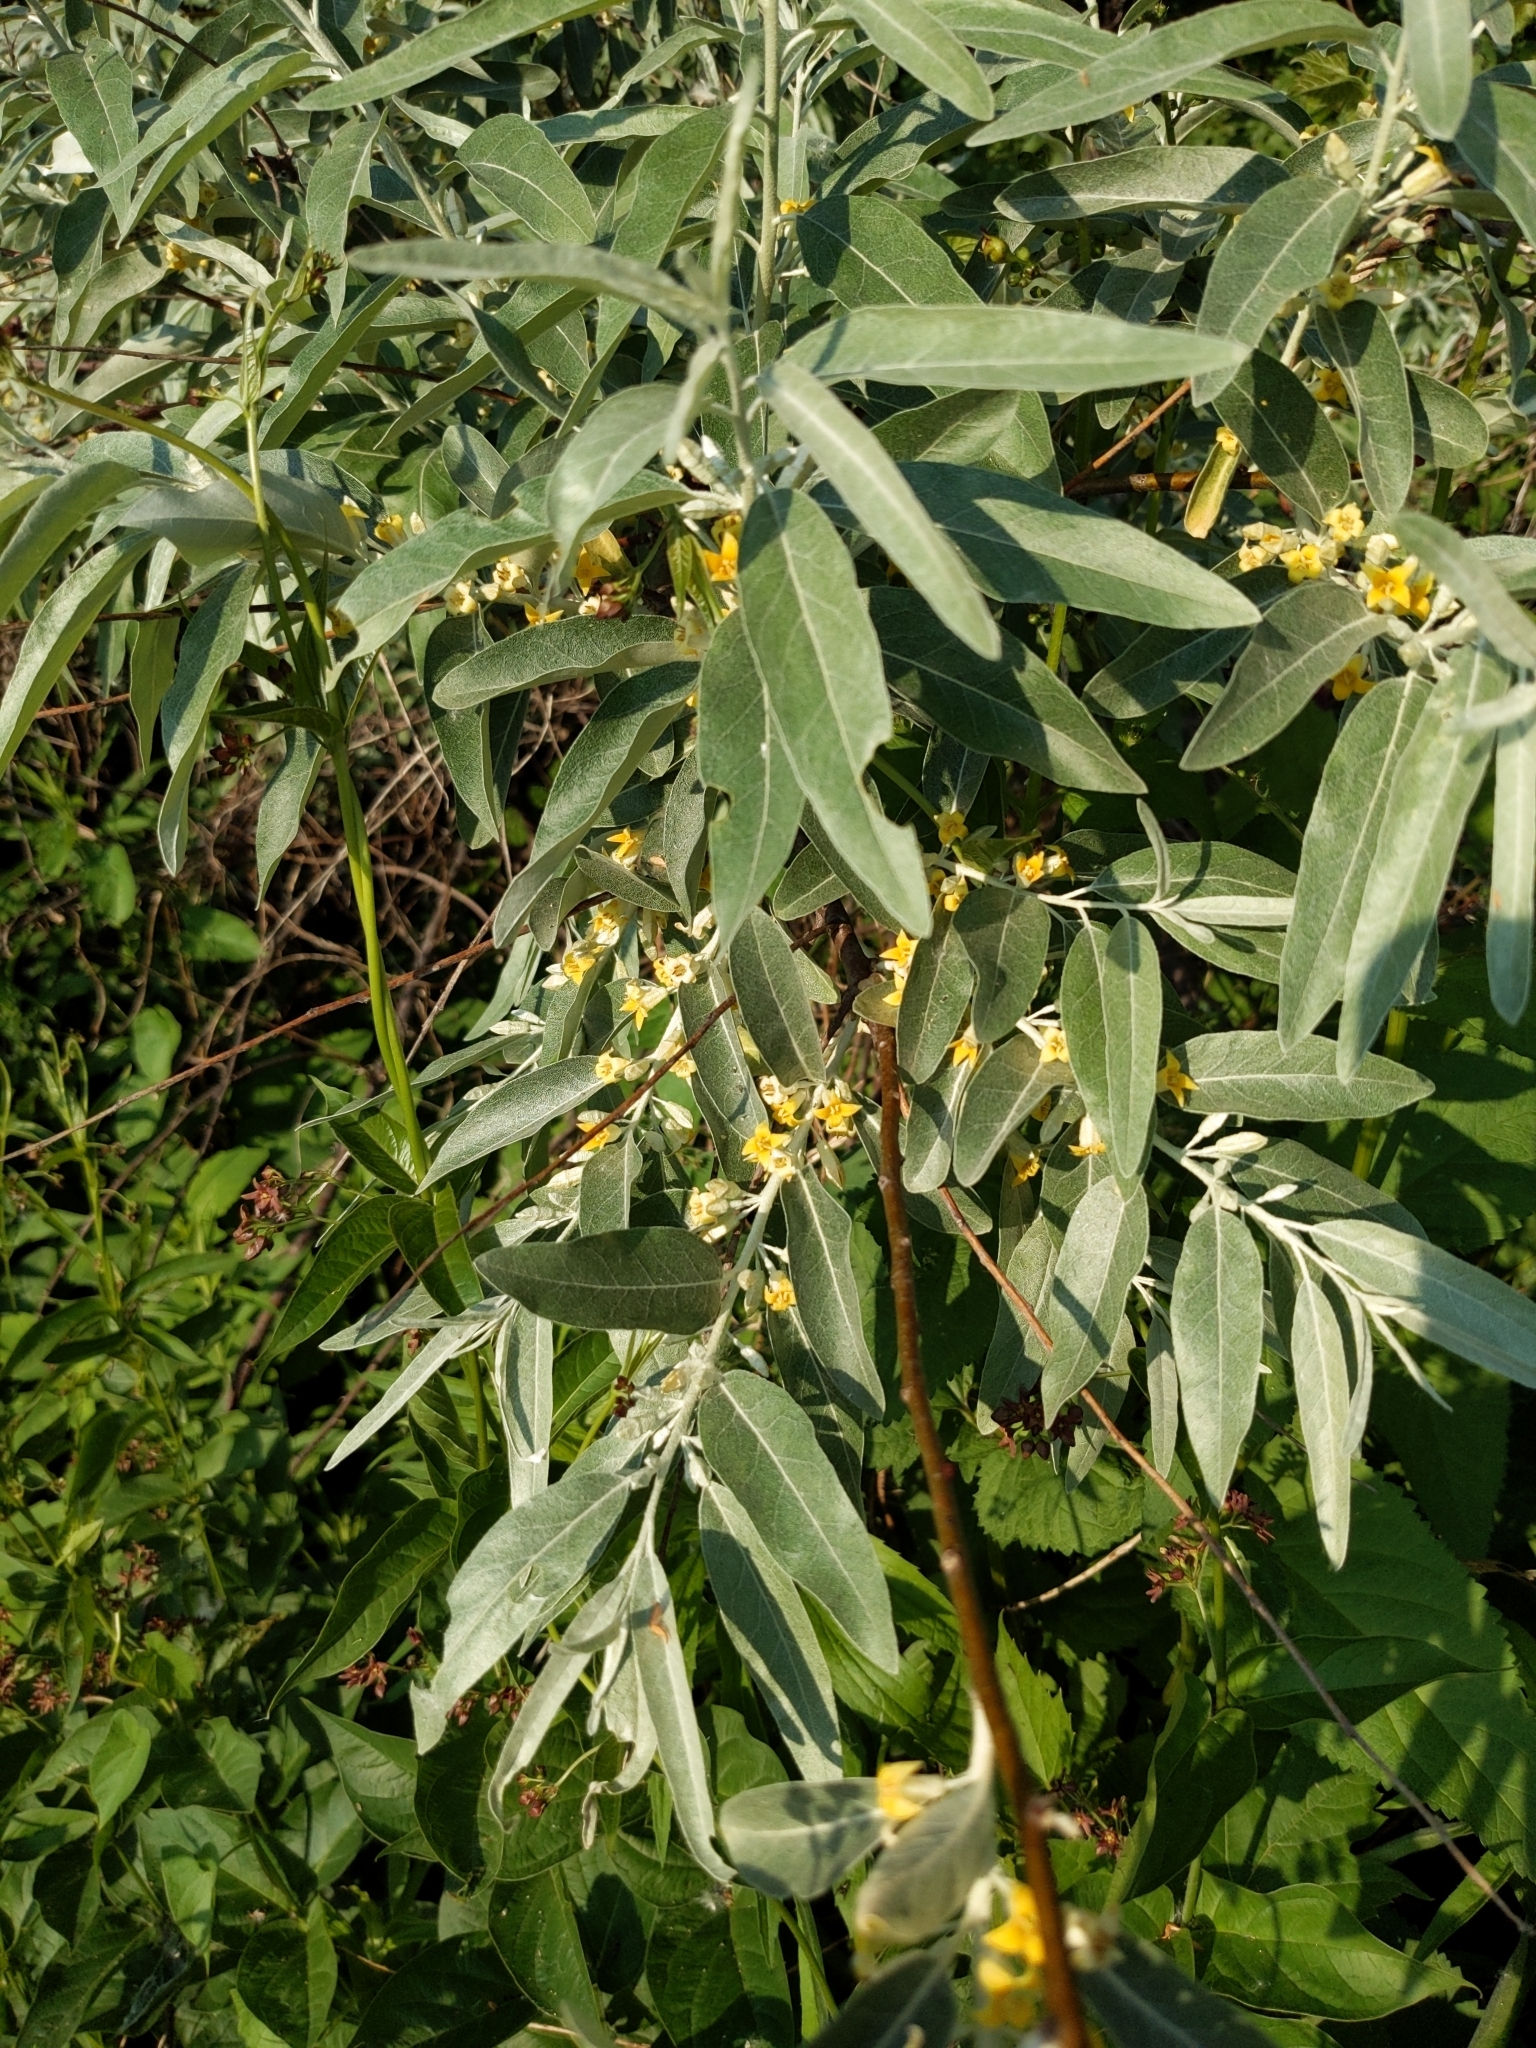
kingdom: Plantae
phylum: Tracheophyta
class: Magnoliopsida
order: Rosales
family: Elaeagnaceae
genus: Elaeagnus
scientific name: Elaeagnus angustifolia
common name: Russian olive
